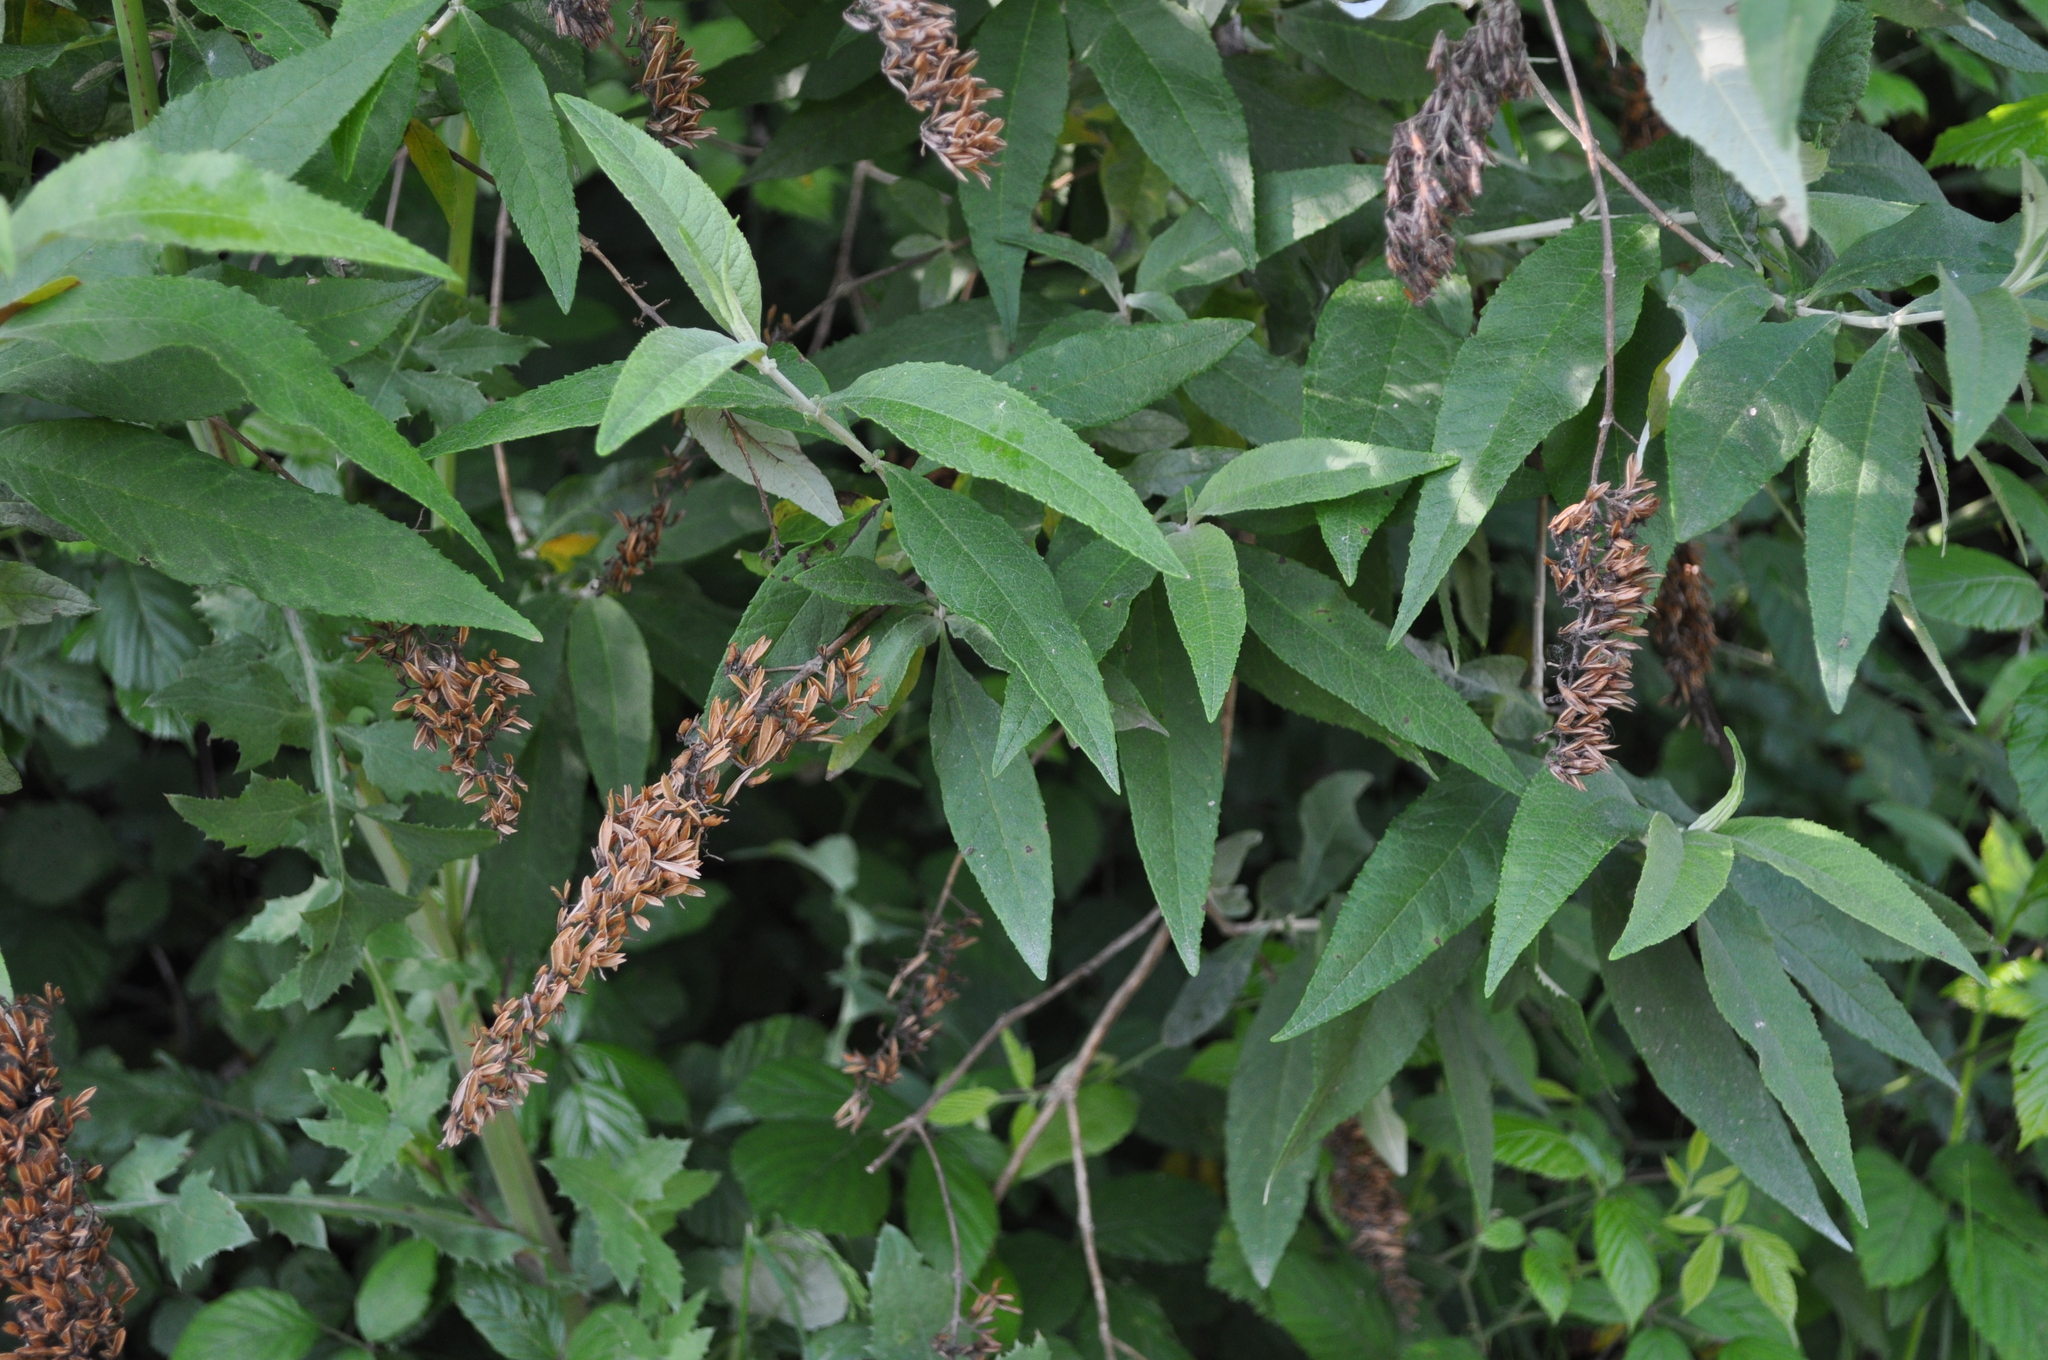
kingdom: Plantae
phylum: Tracheophyta
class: Magnoliopsida
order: Lamiales
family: Scrophulariaceae
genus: Buddleja
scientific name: Buddleja davidii
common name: Butterfly-bush
